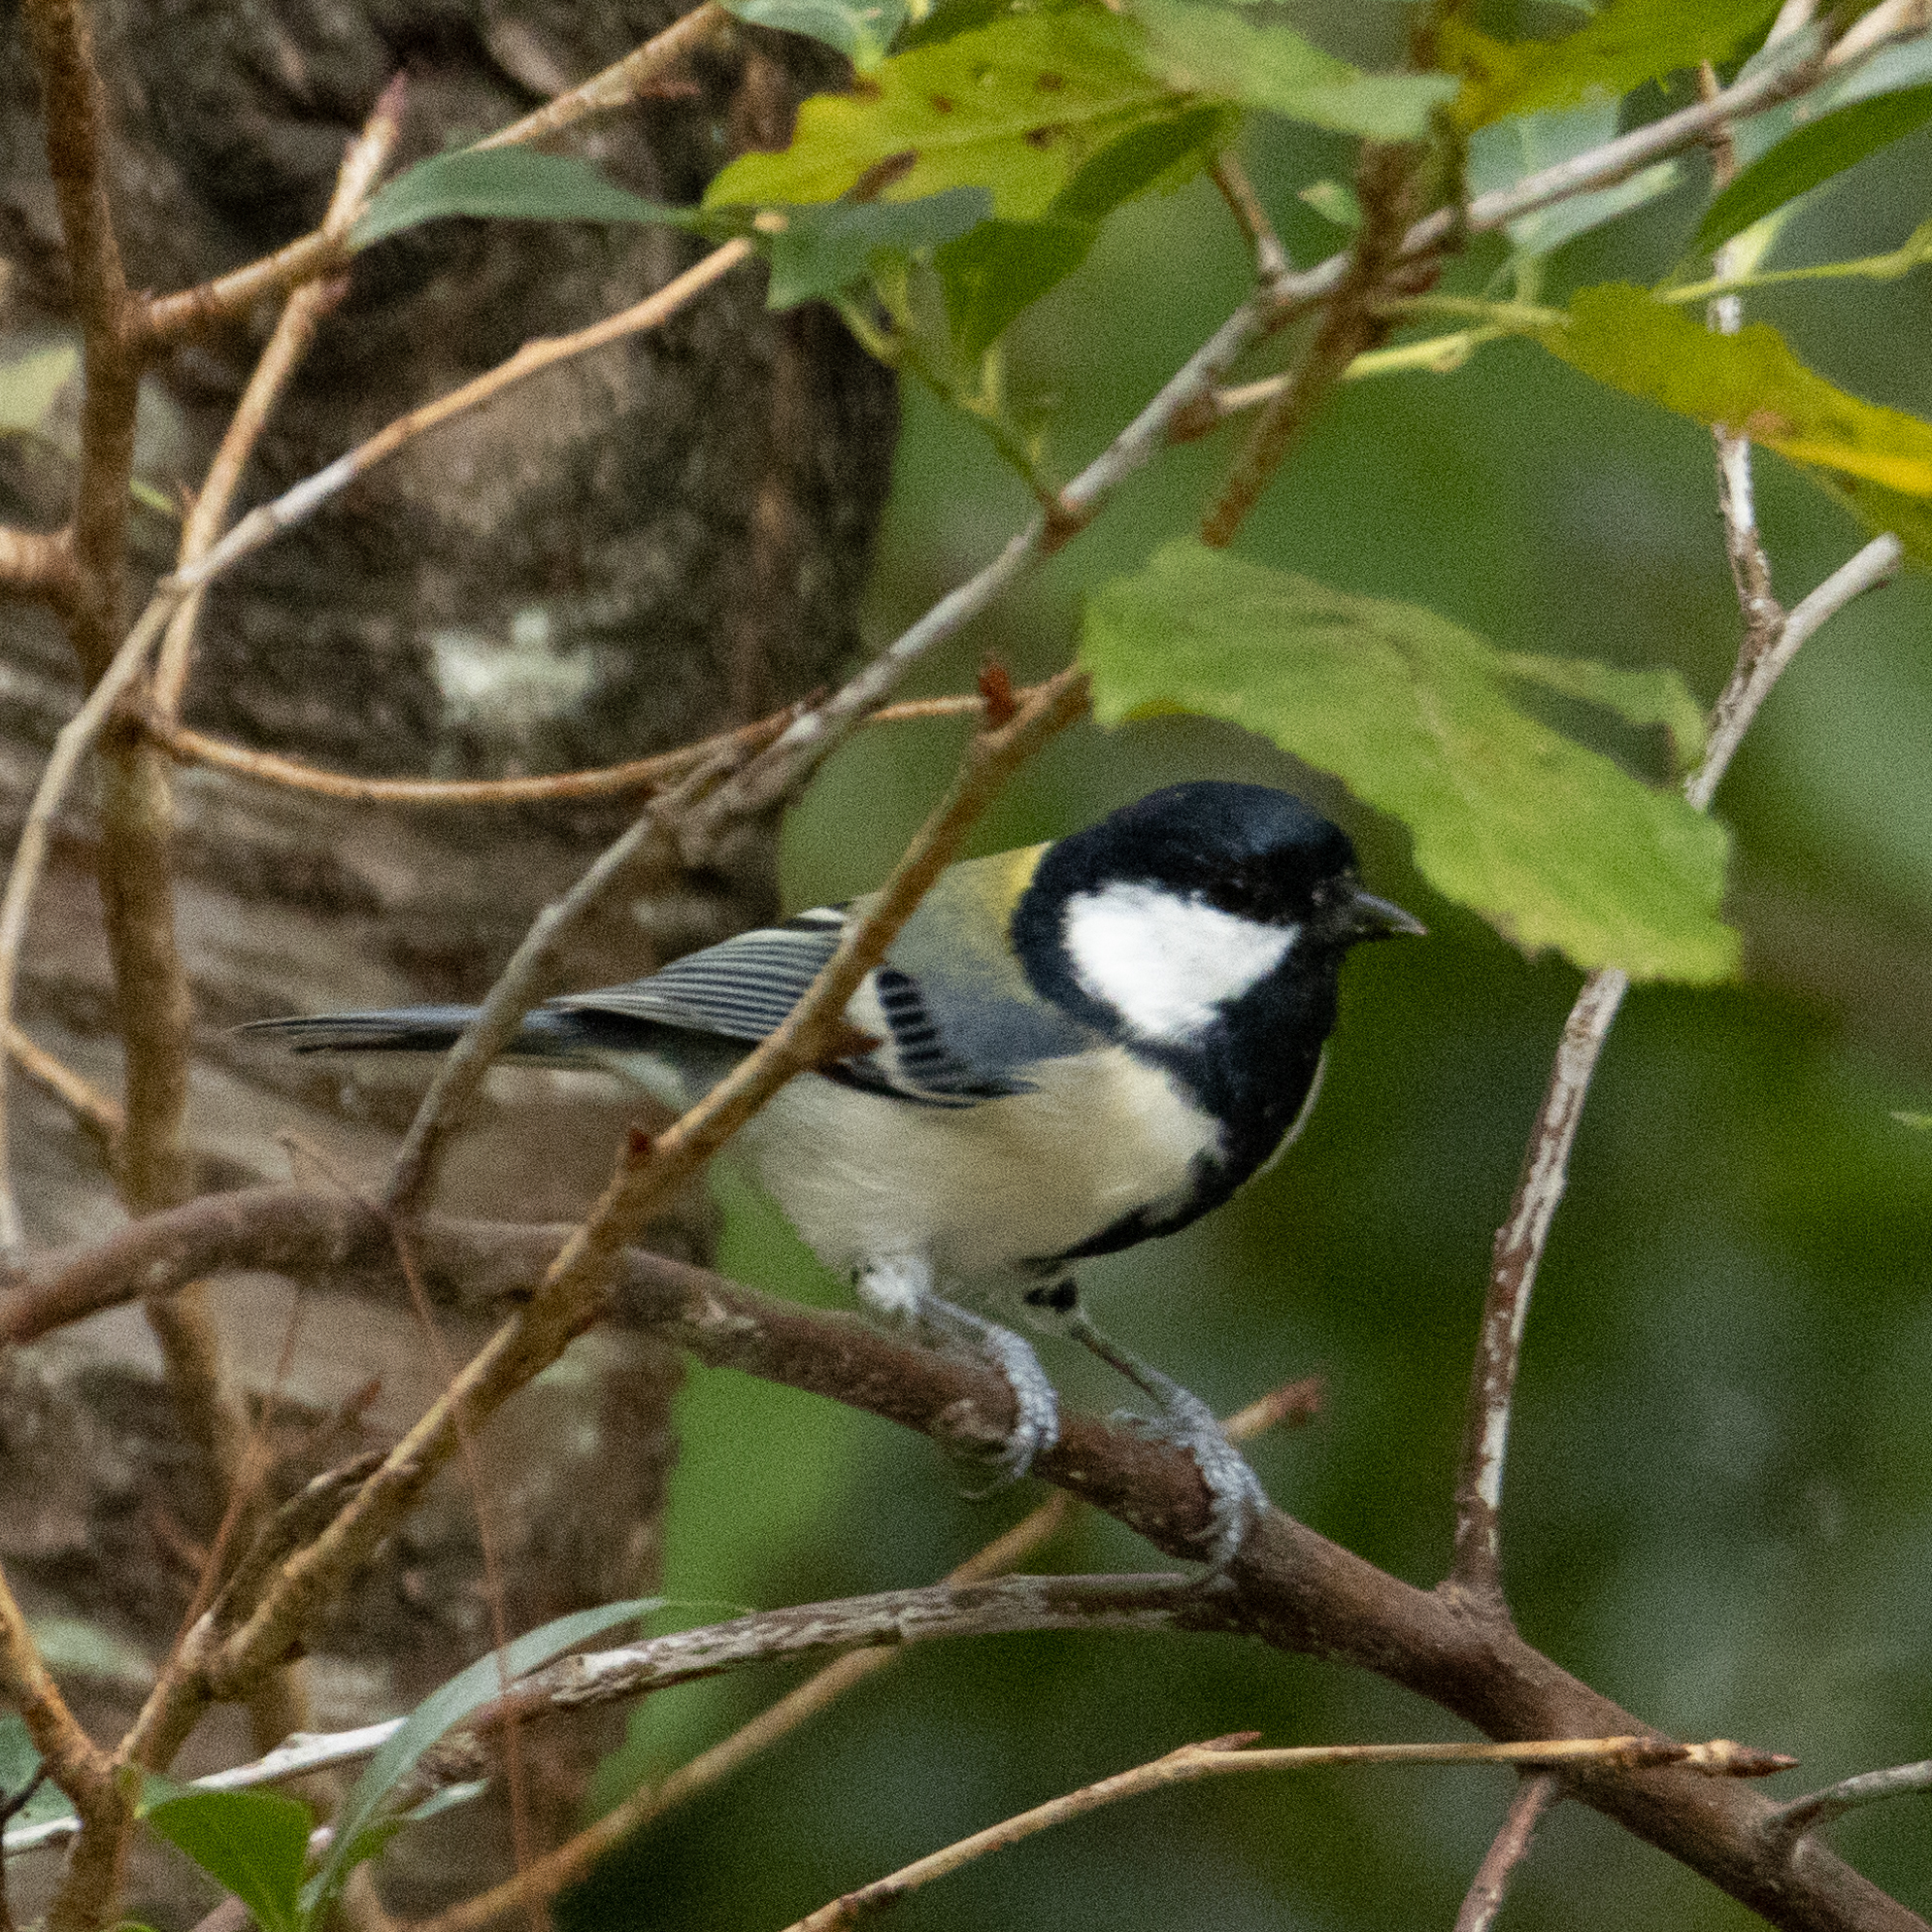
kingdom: Animalia
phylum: Chordata
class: Aves
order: Passeriformes
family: Paridae
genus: Parus
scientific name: Parus minor
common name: Japanese tit
